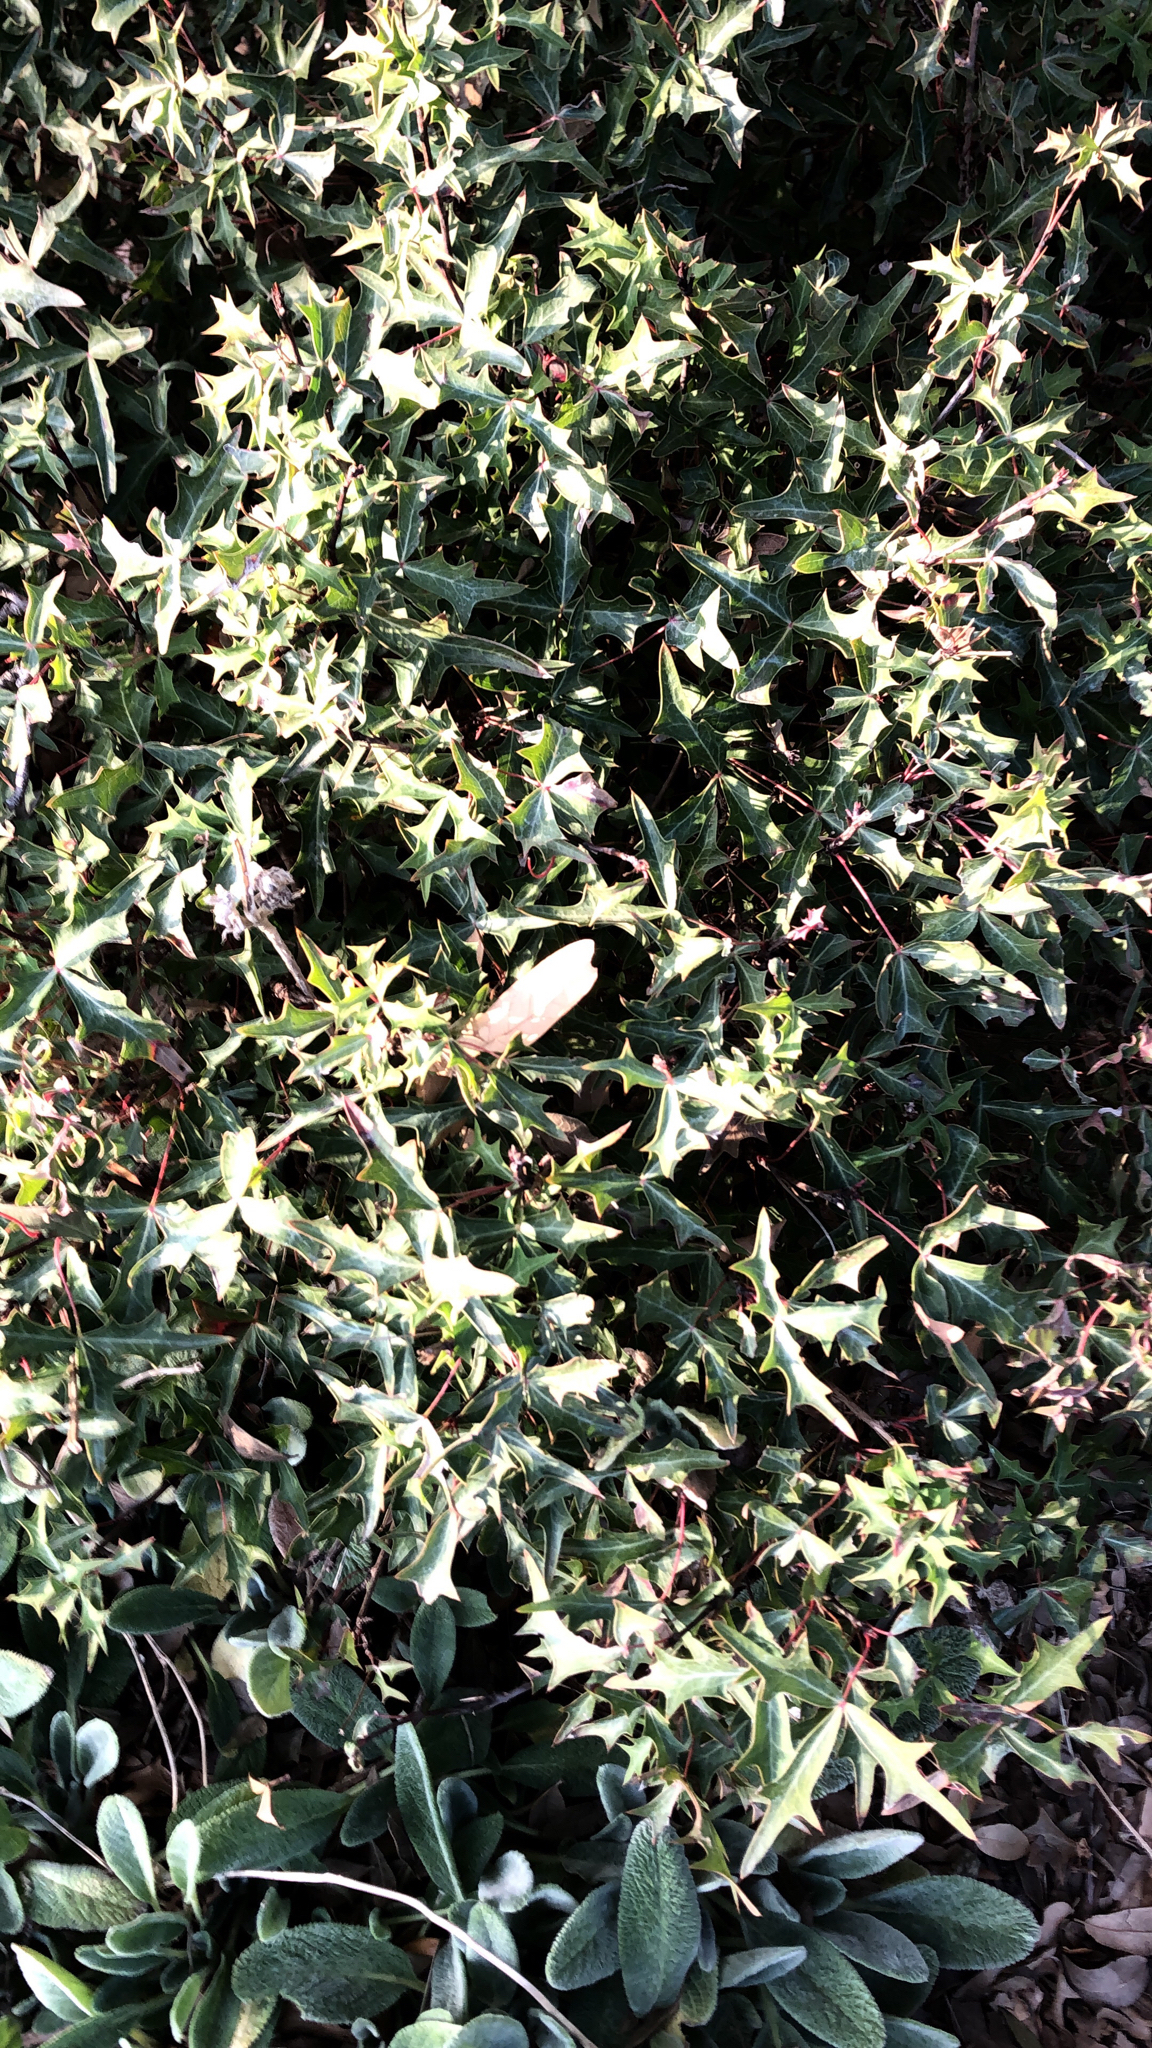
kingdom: Plantae
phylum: Tracheophyta
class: Magnoliopsida
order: Ranunculales
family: Berberidaceae
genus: Alloberberis
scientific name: Alloberberis trifoliolata
